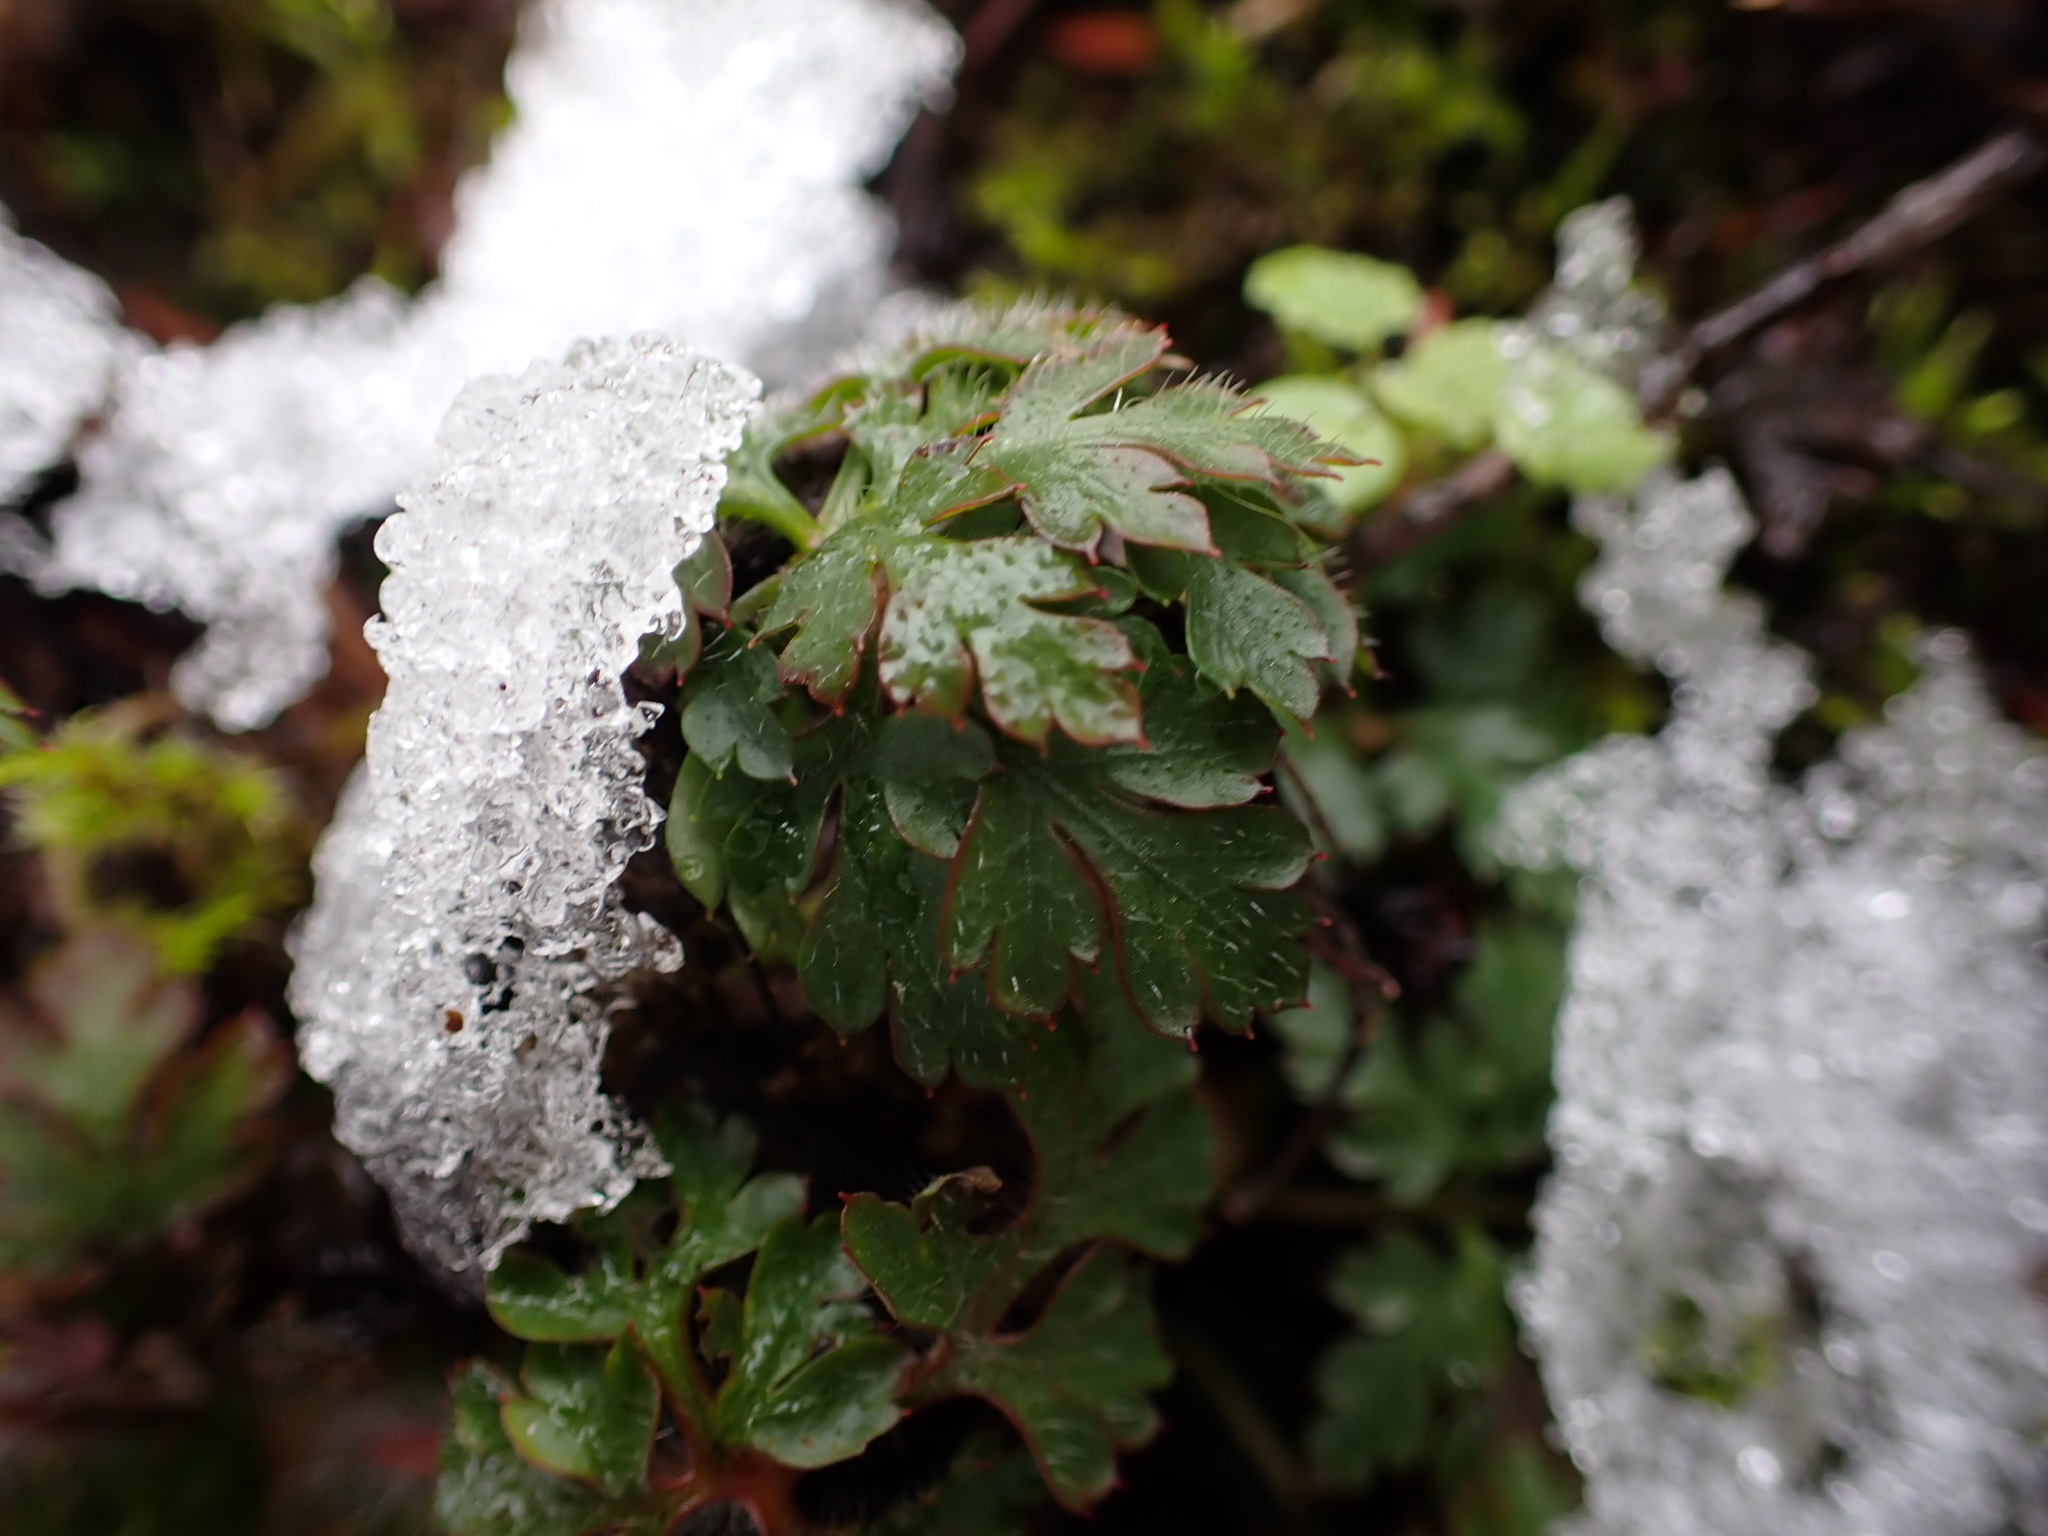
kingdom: Plantae
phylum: Tracheophyta
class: Magnoliopsida
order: Geraniales
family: Geraniaceae
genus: Geranium
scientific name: Geranium robertianum
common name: Herb-robert
